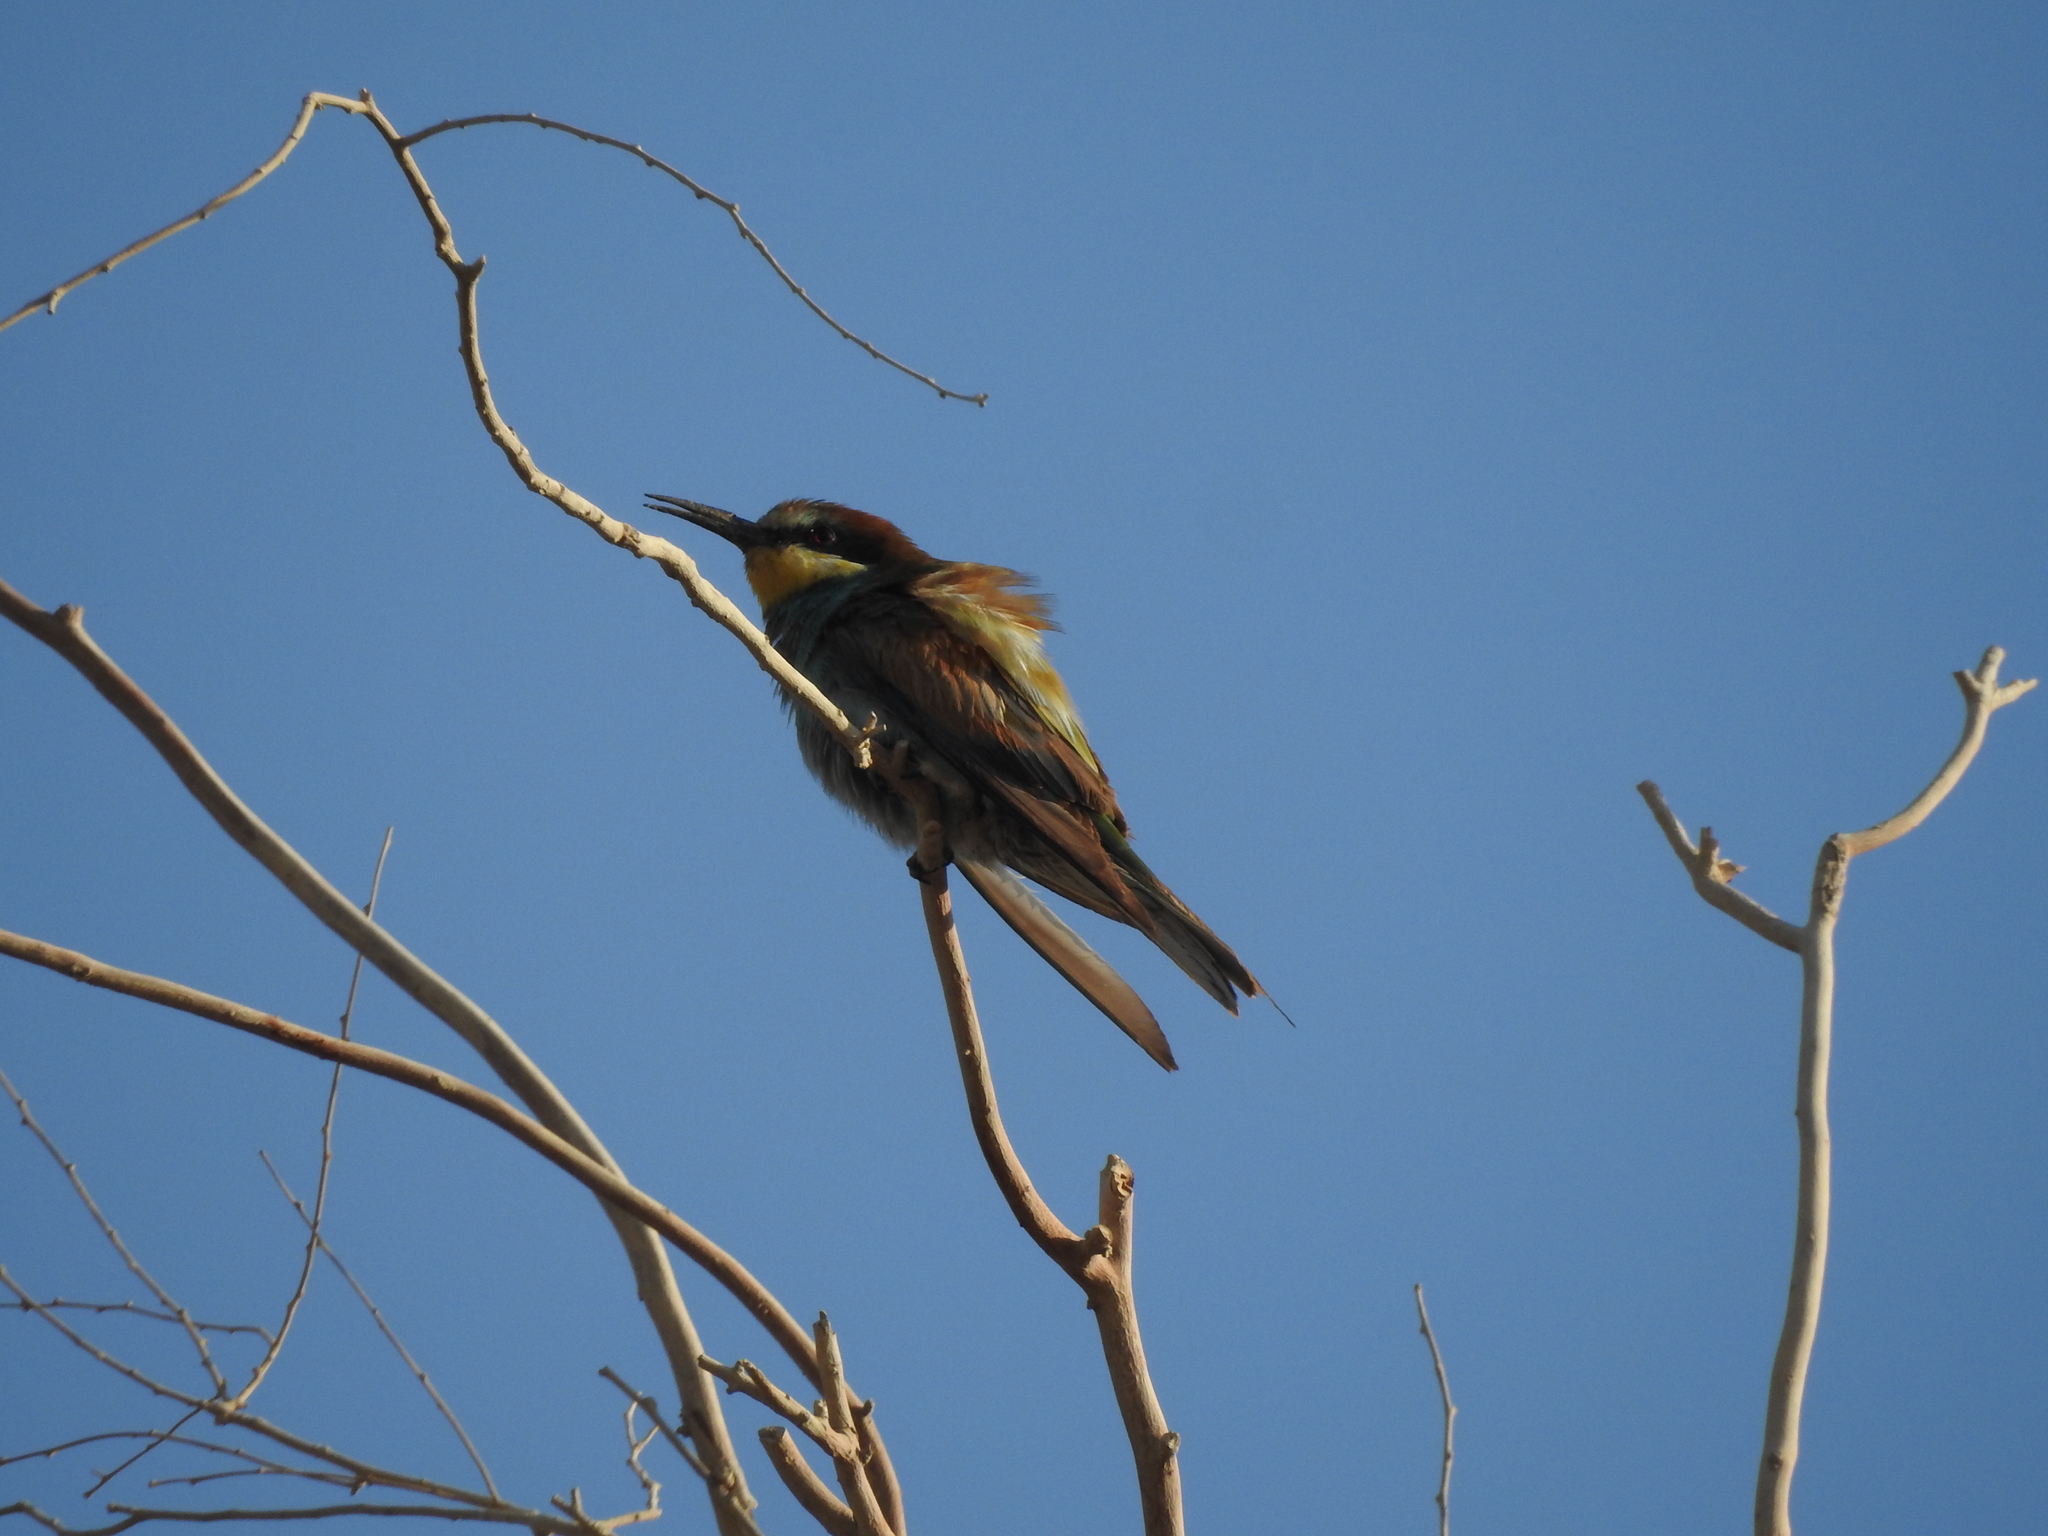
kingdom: Animalia
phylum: Chordata
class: Aves
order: Coraciiformes
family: Meropidae
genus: Merops
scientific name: Merops apiaster
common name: European bee-eater
